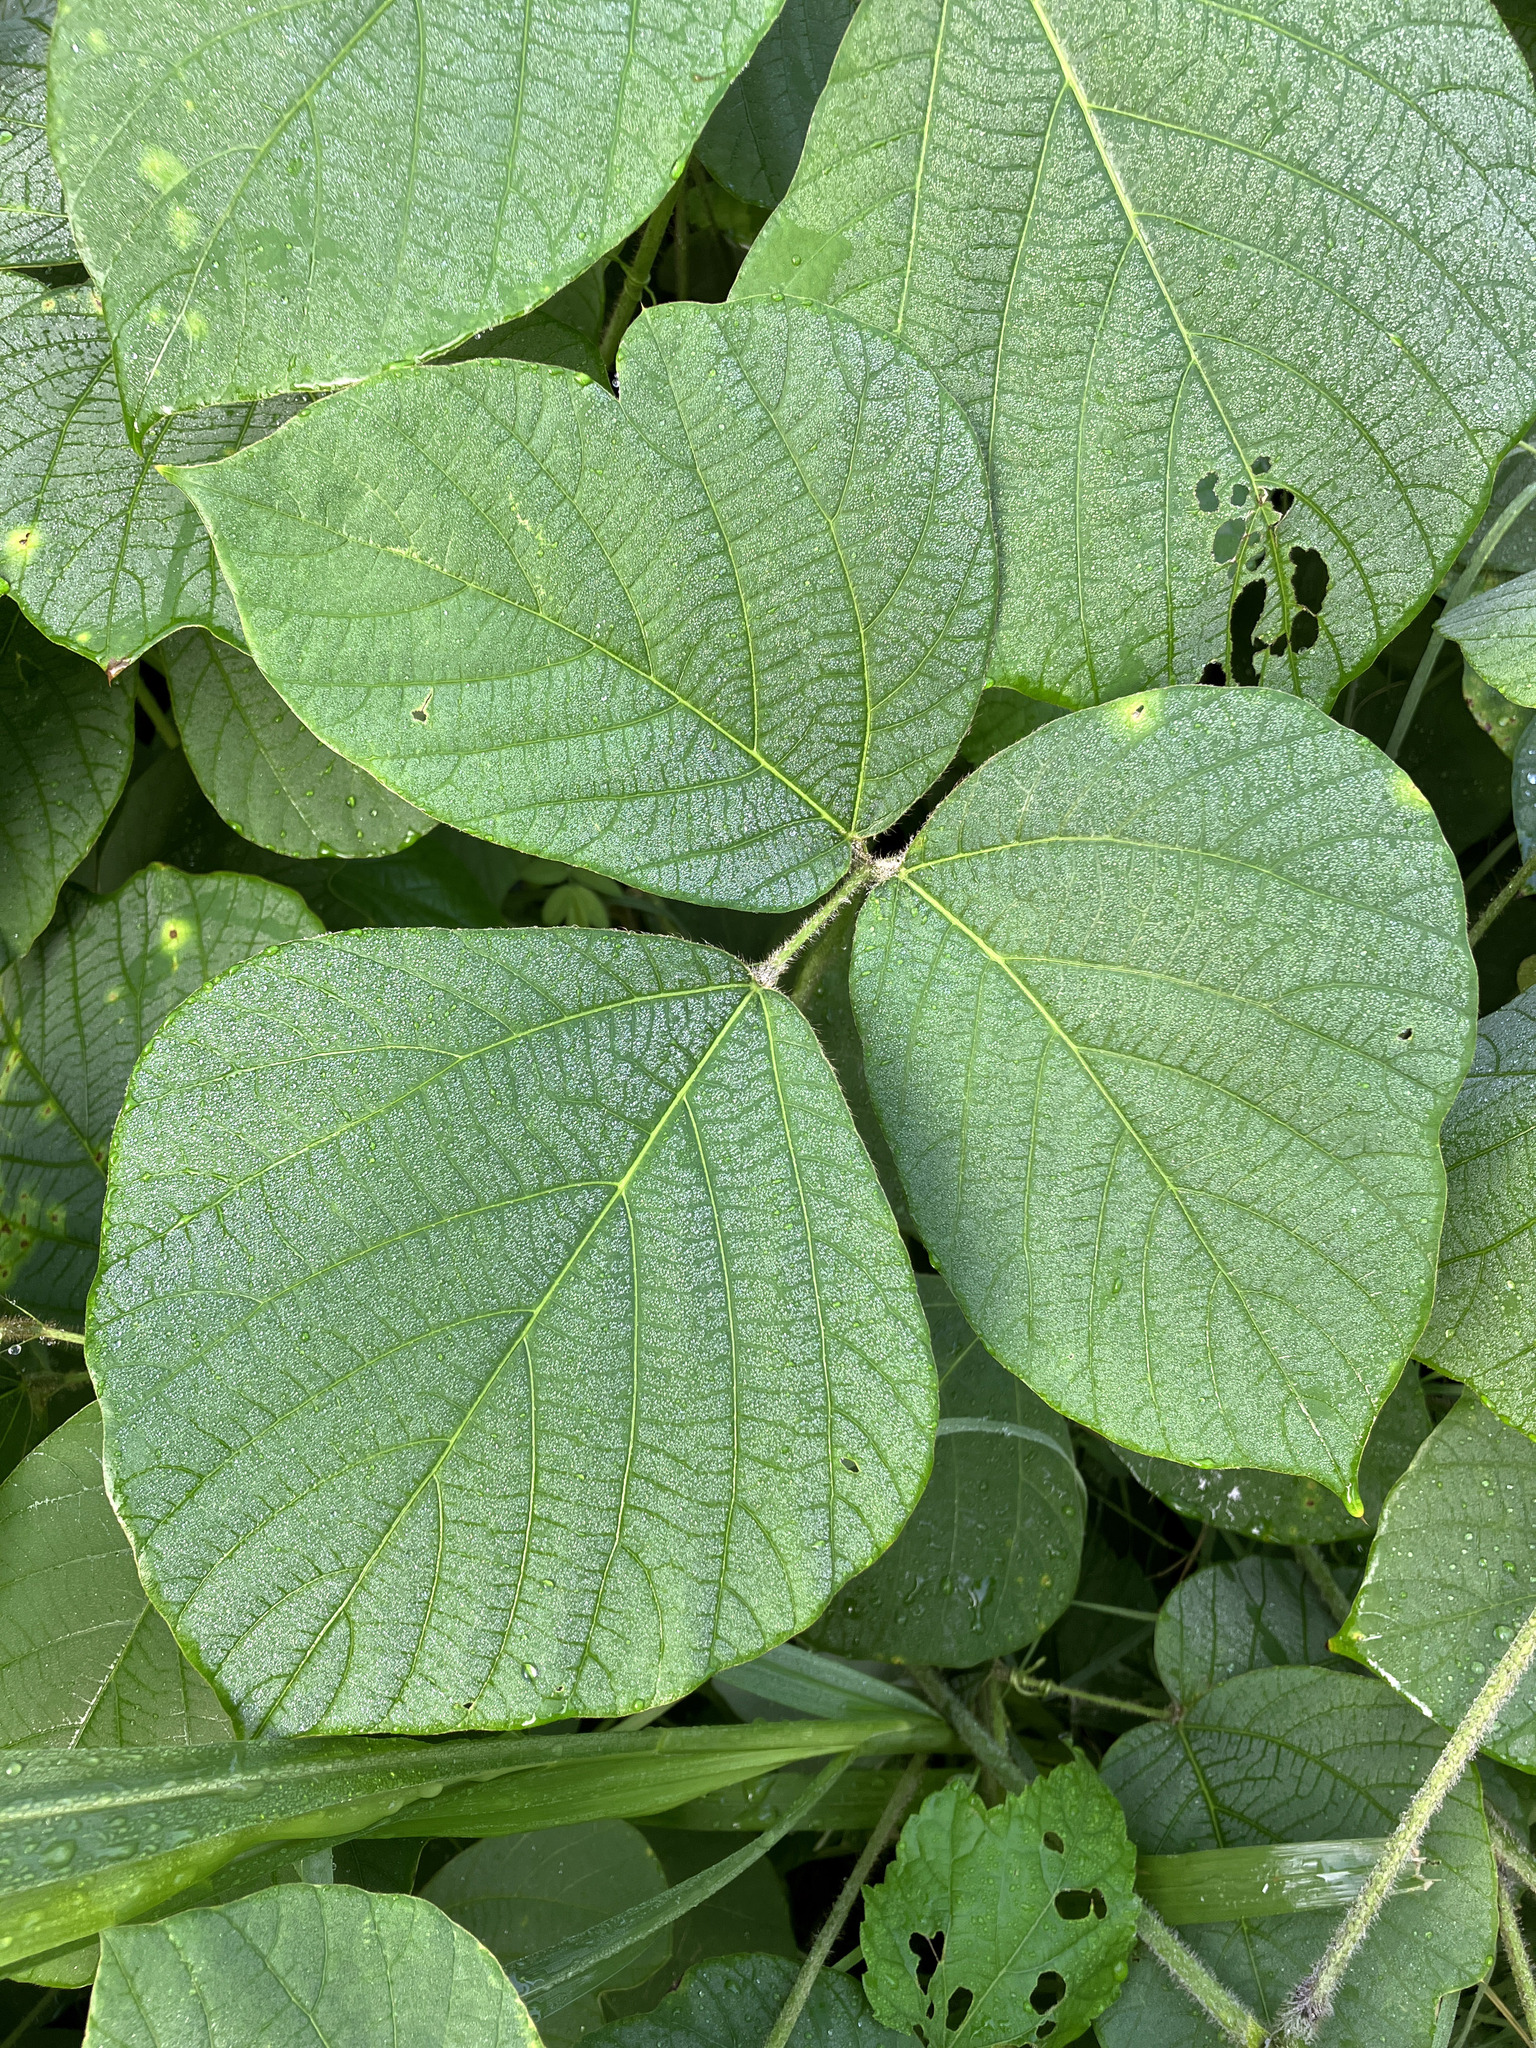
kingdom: Plantae
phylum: Tracheophyta
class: Magnoliopsida
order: Fabales
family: Fabaceae
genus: Pueraria
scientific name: Pueraria montana
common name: Kudzu
